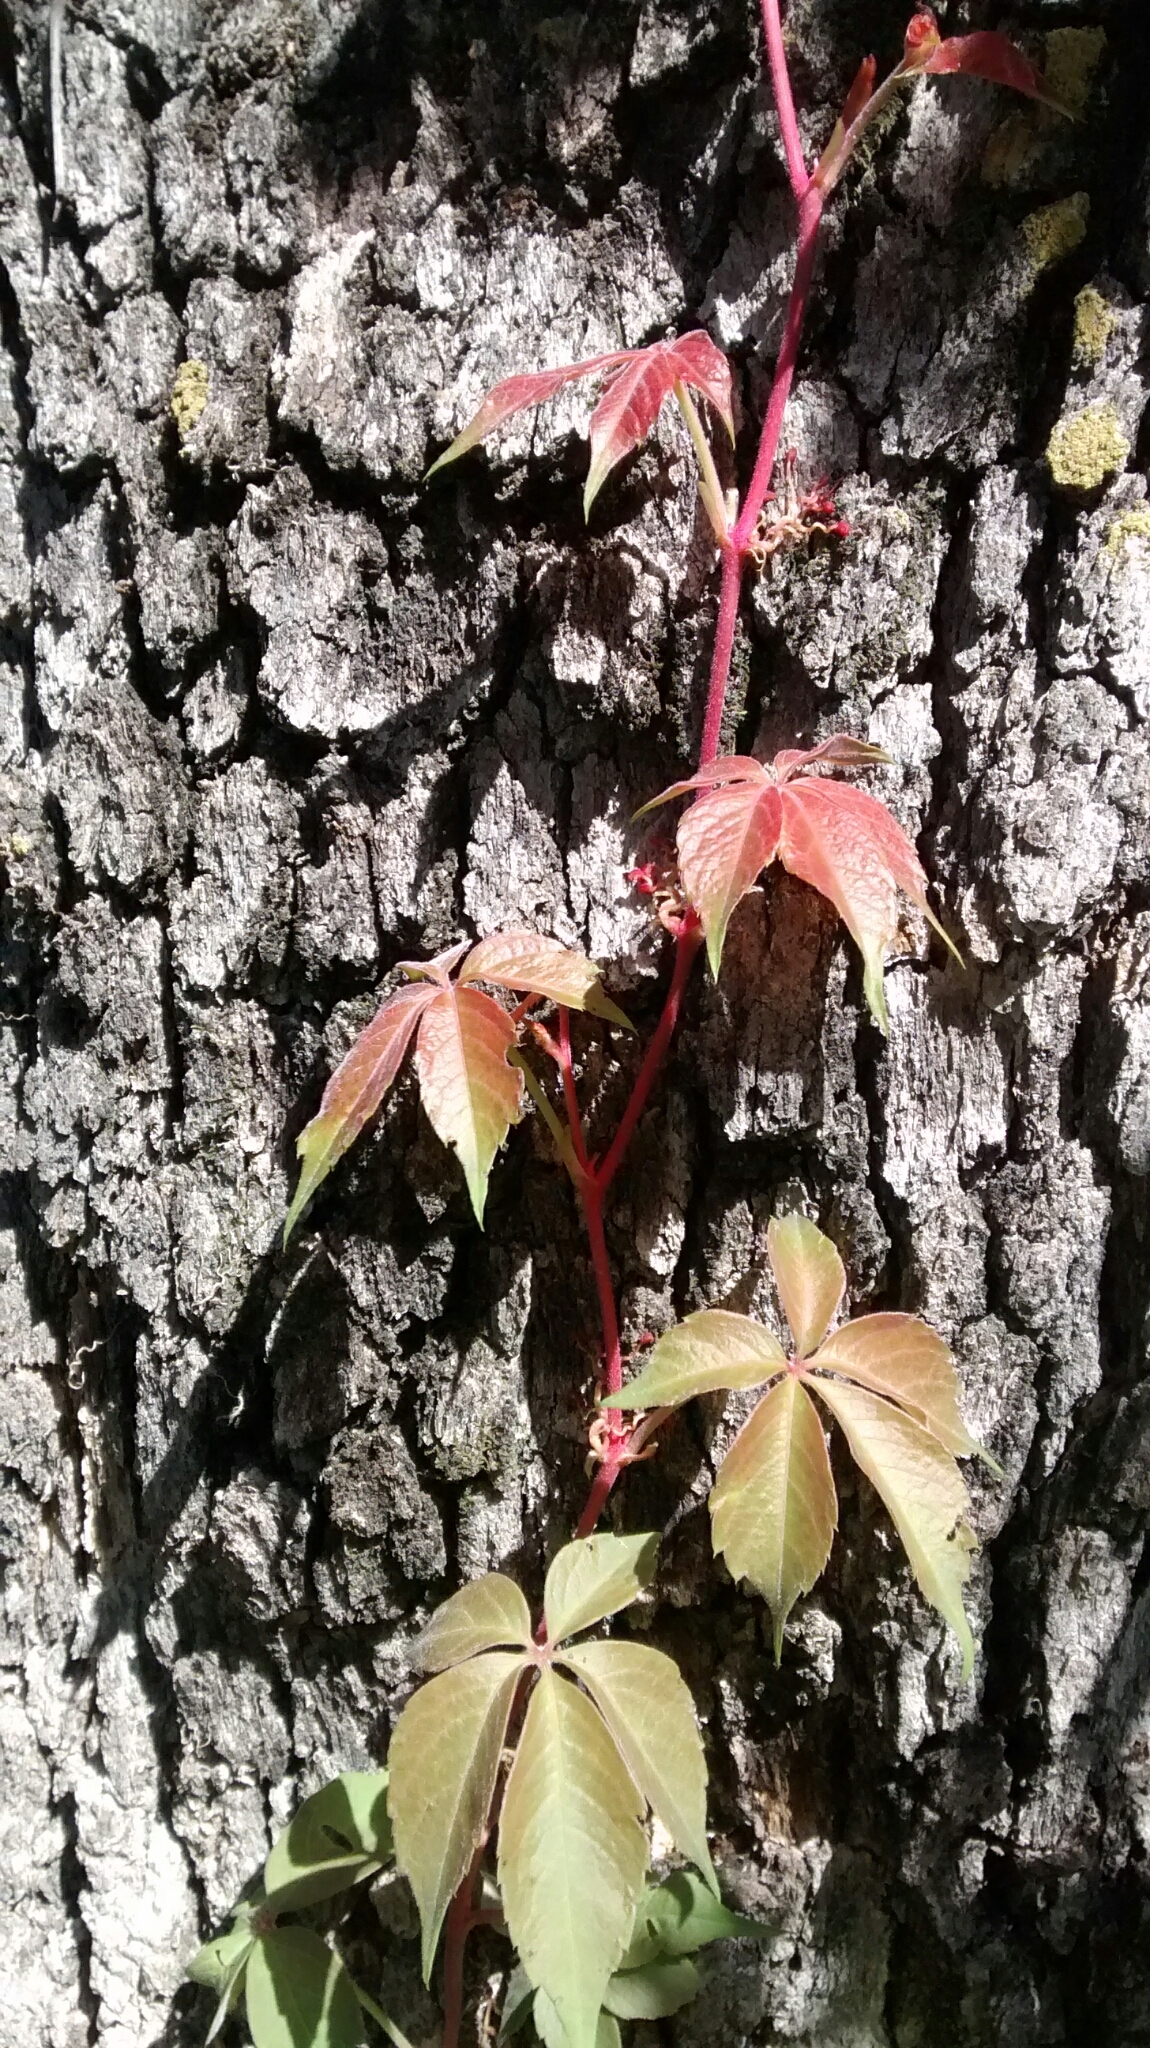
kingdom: Plantae
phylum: Tracheophyta
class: Magnoliopsida
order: Vitales
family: Vitaceae
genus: Parthenocissus
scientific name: Parthenocissus quinquefolia
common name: Virginia-creeper
